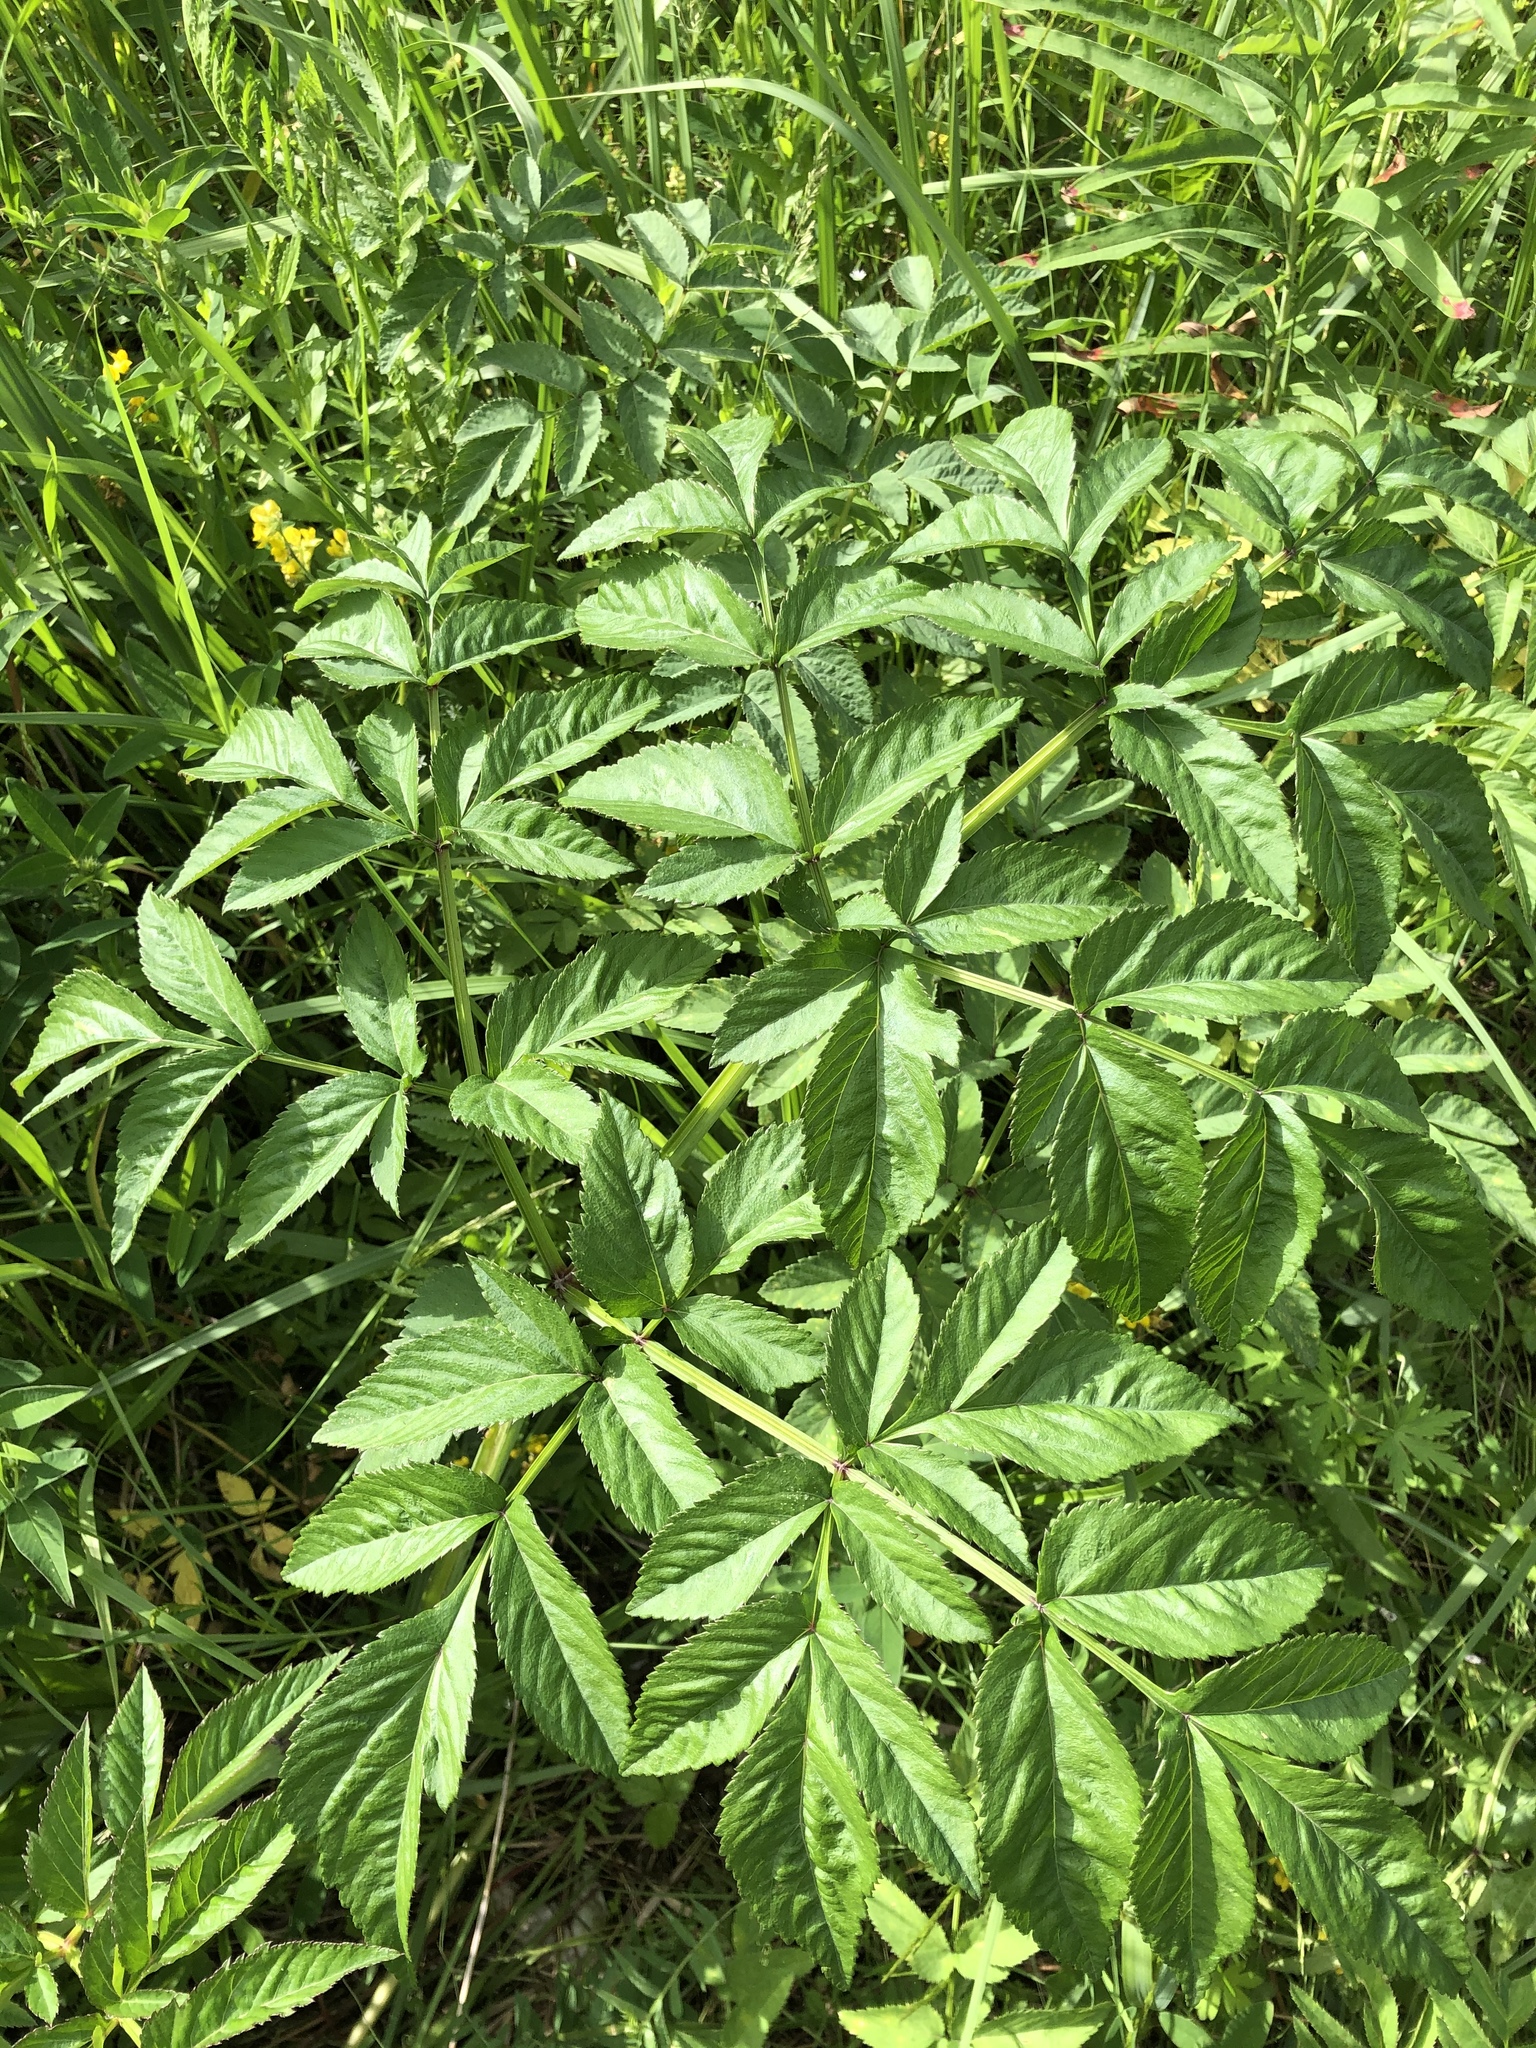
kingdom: Plantae
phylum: Tracheophyta
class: Magnoliopsida
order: Apiales
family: Apiaceae
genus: Angelica
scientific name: Angelica sylvestris
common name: Wild angelica
